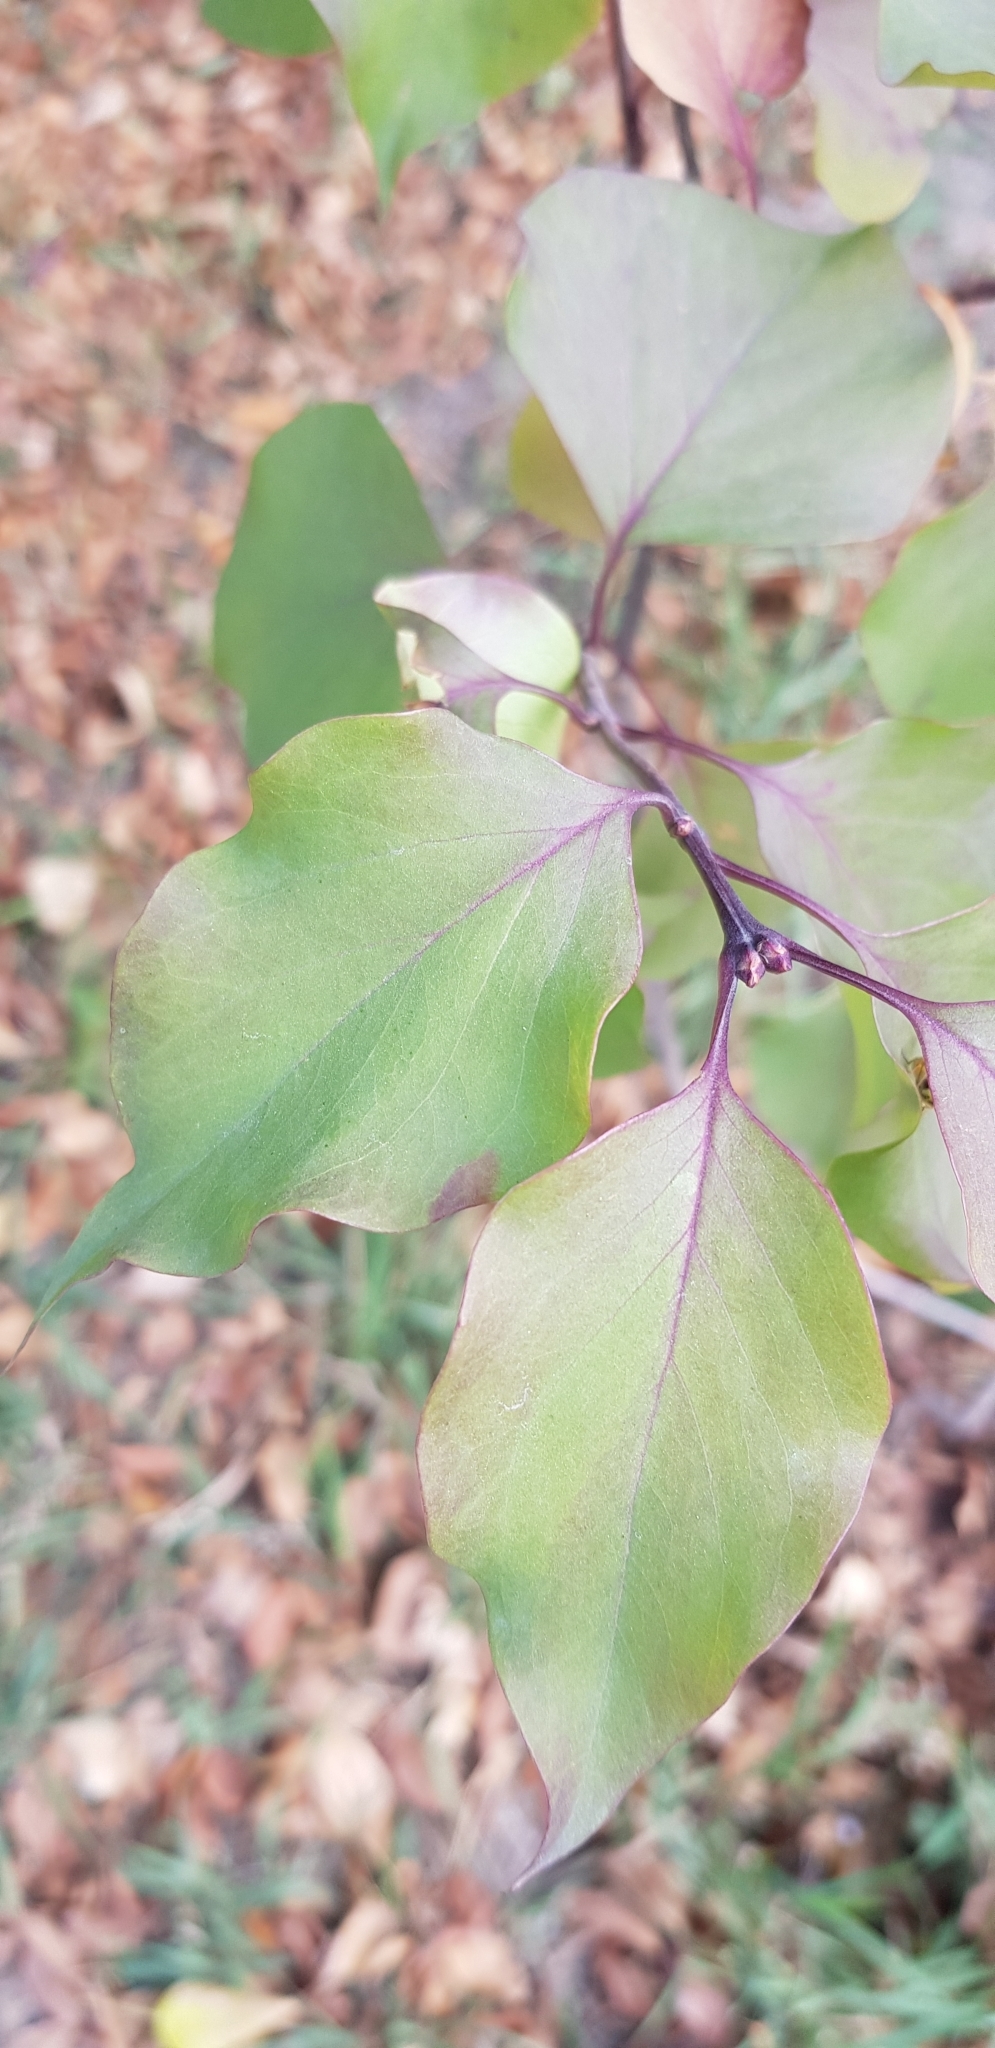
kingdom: Plantae
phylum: Tracheophyta
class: Magnoliopsida
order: Lamiales
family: Oleaceae
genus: Syringa
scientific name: Syringa vulgaris
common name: Common lilac
